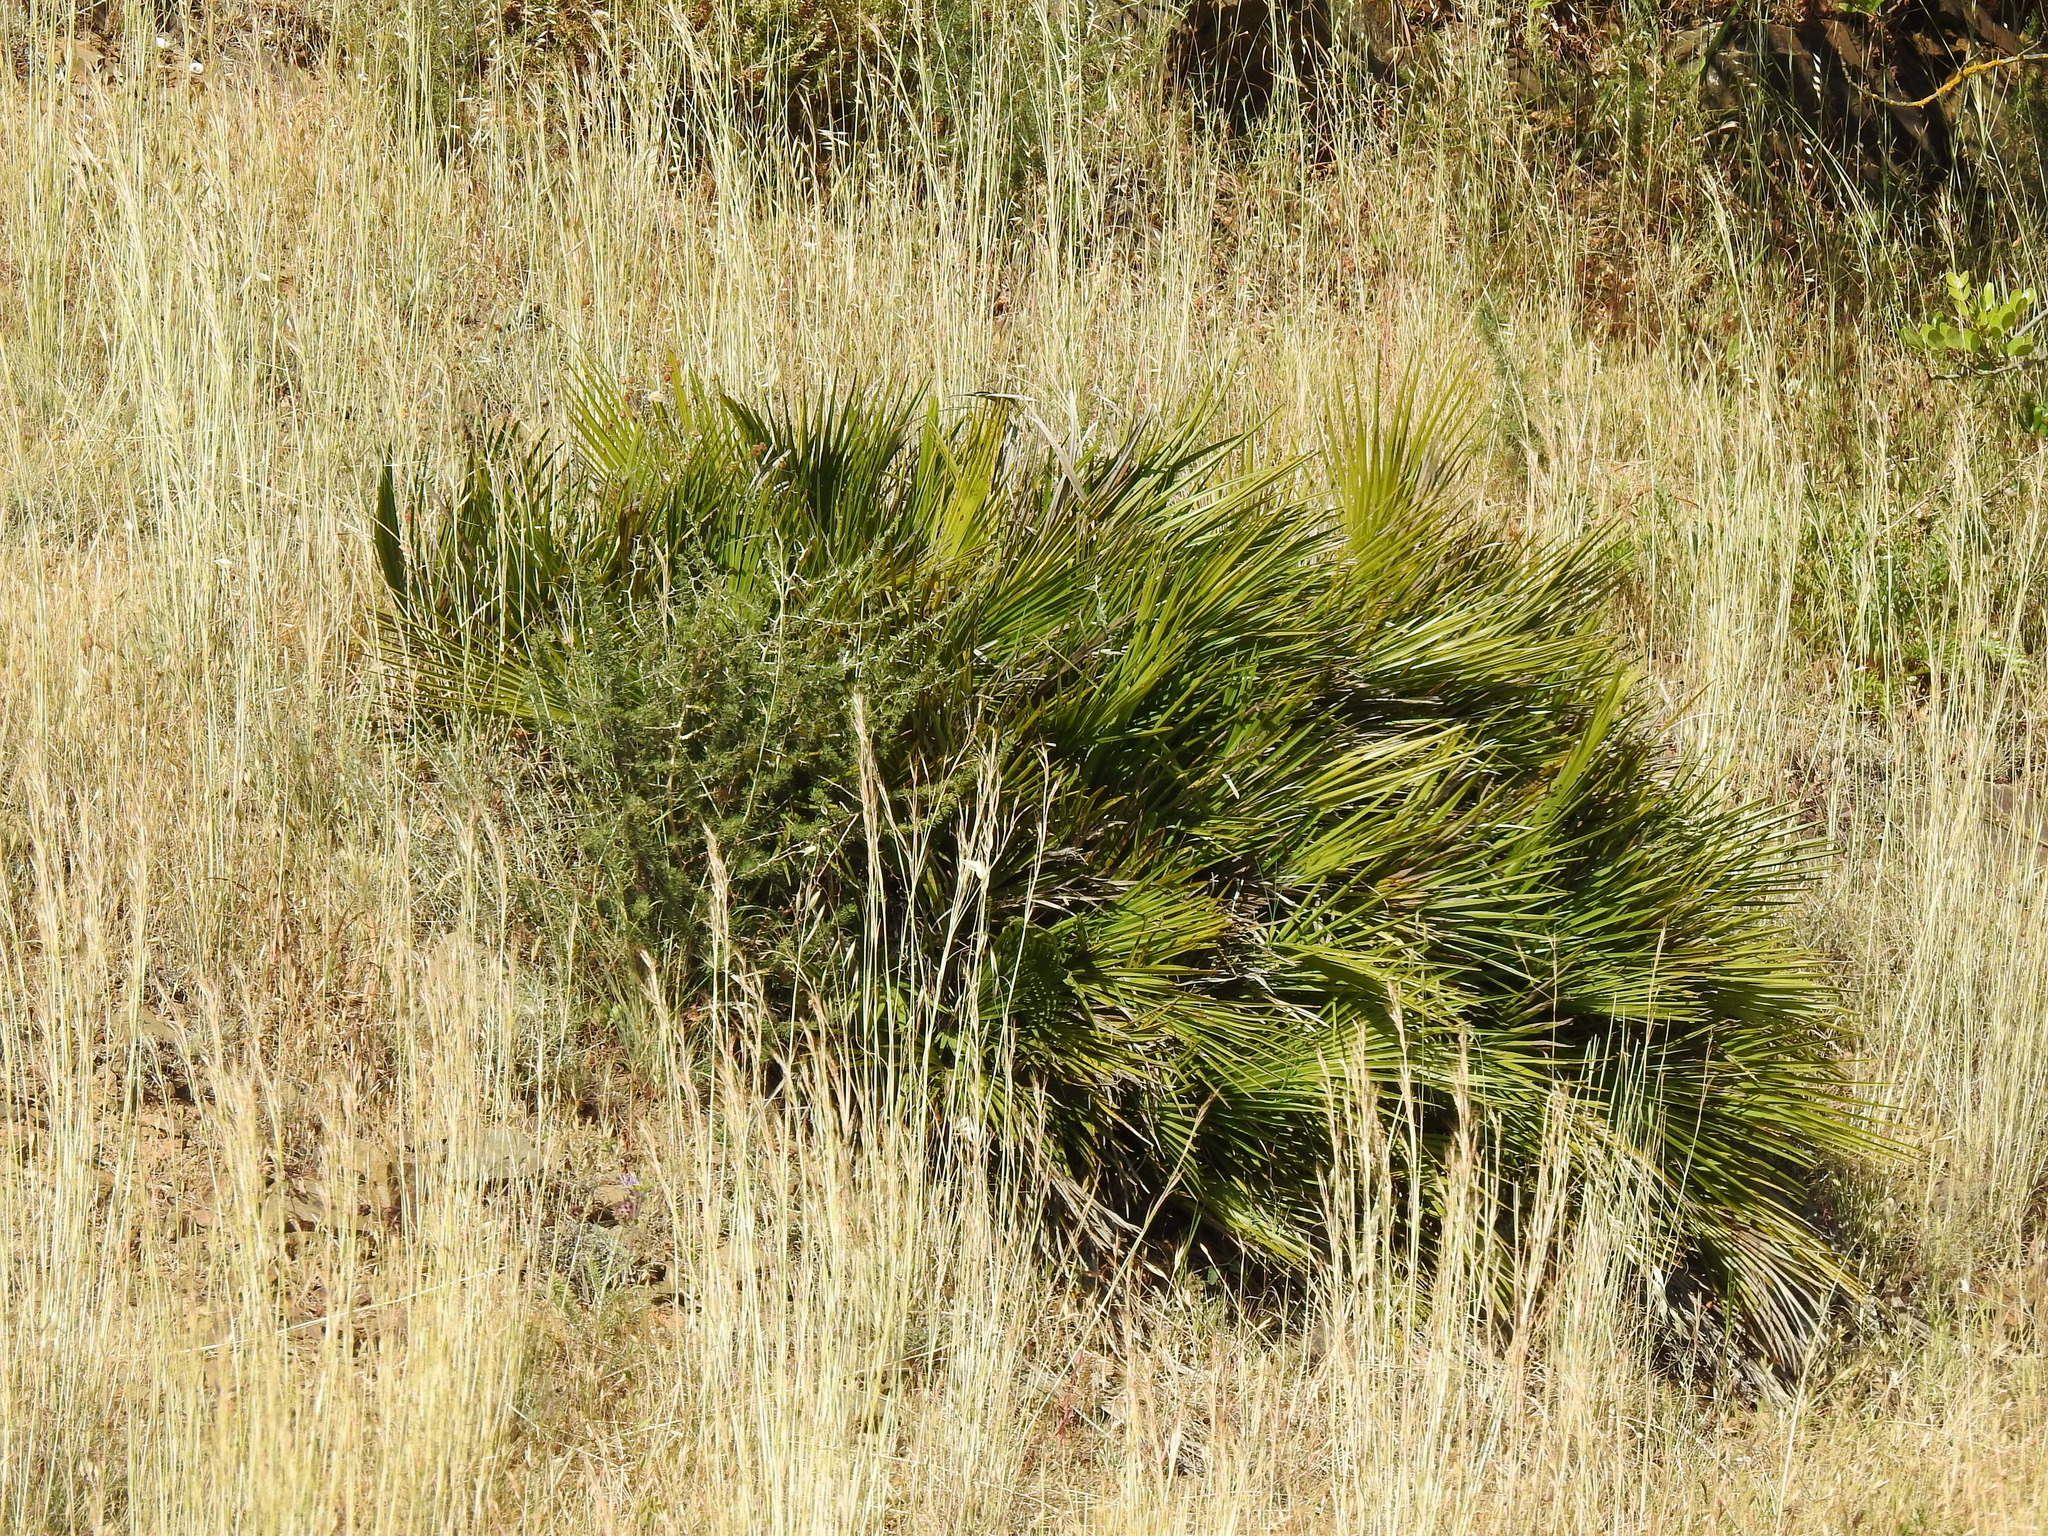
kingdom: Plantae
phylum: Tracheophyta
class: Liliopsida
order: Arecales
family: Arecaceae
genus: Chamaerops
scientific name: Chamaerops humilis
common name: Dwarf fan palm
